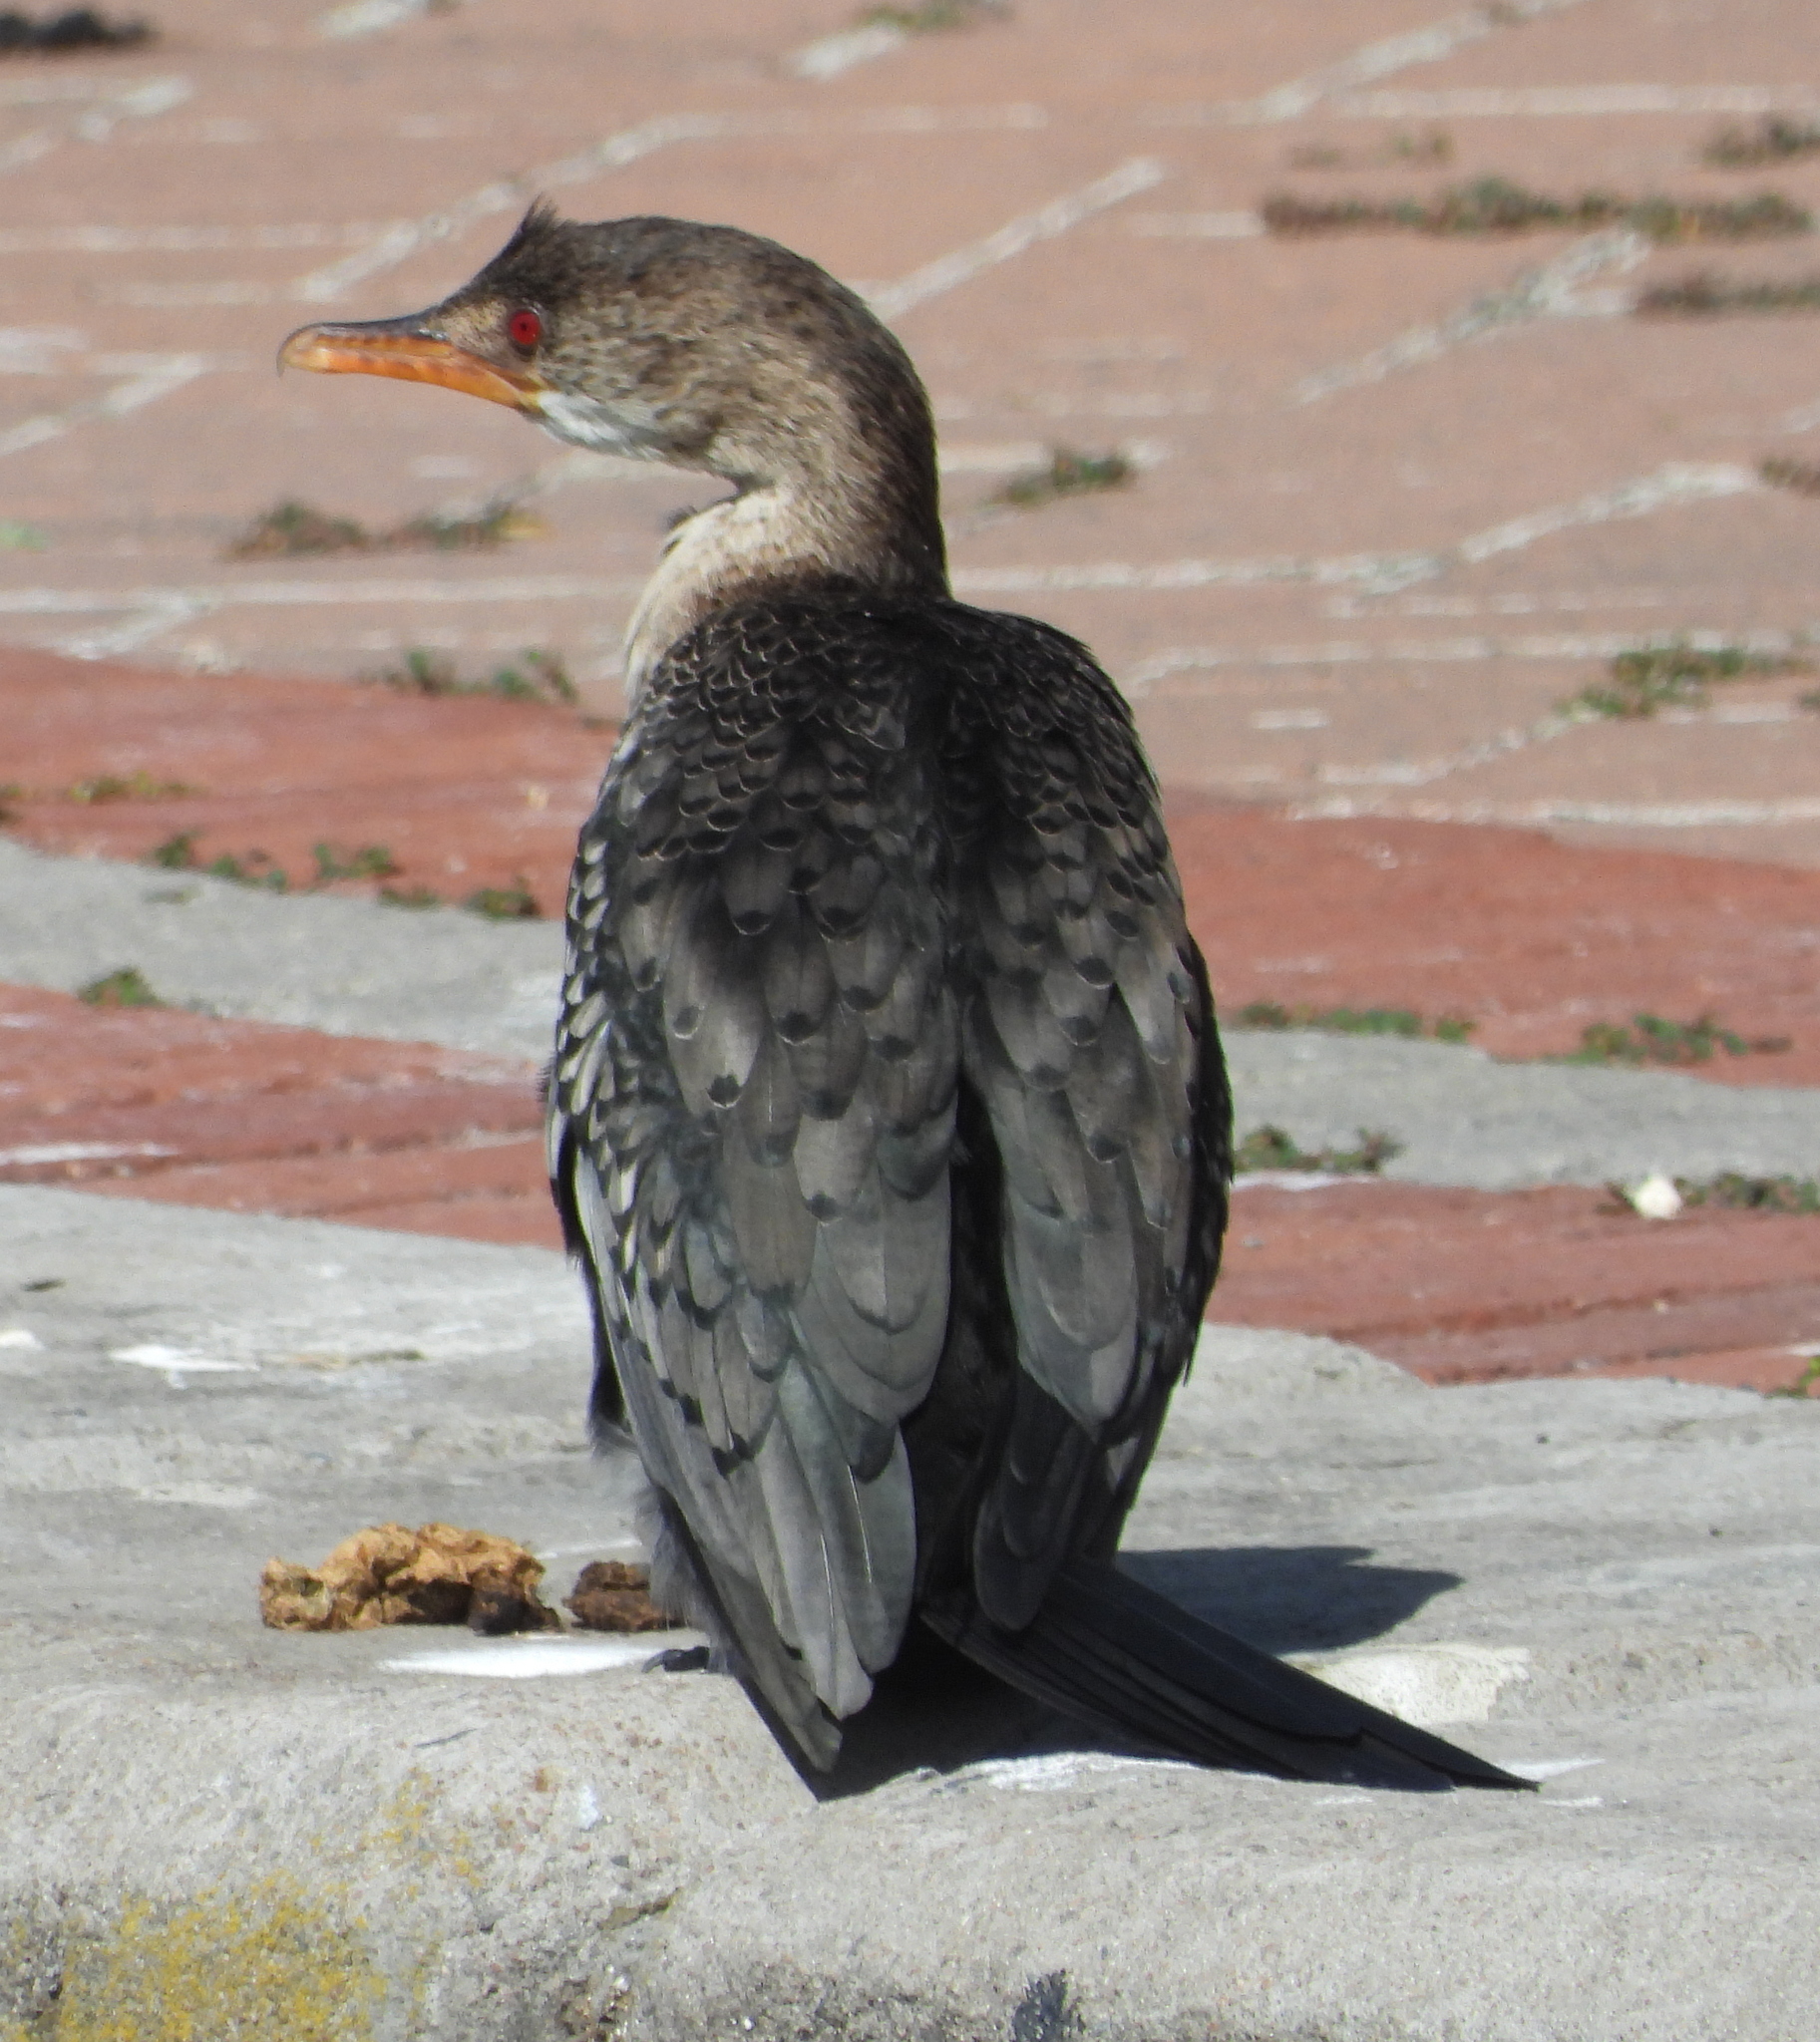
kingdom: Animalia
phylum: Chordata
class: Aves
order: Suliformes
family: Phalacrocoracidae
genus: Microcarbo
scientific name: Microcarbo africanus
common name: Long-tailed cormorant
